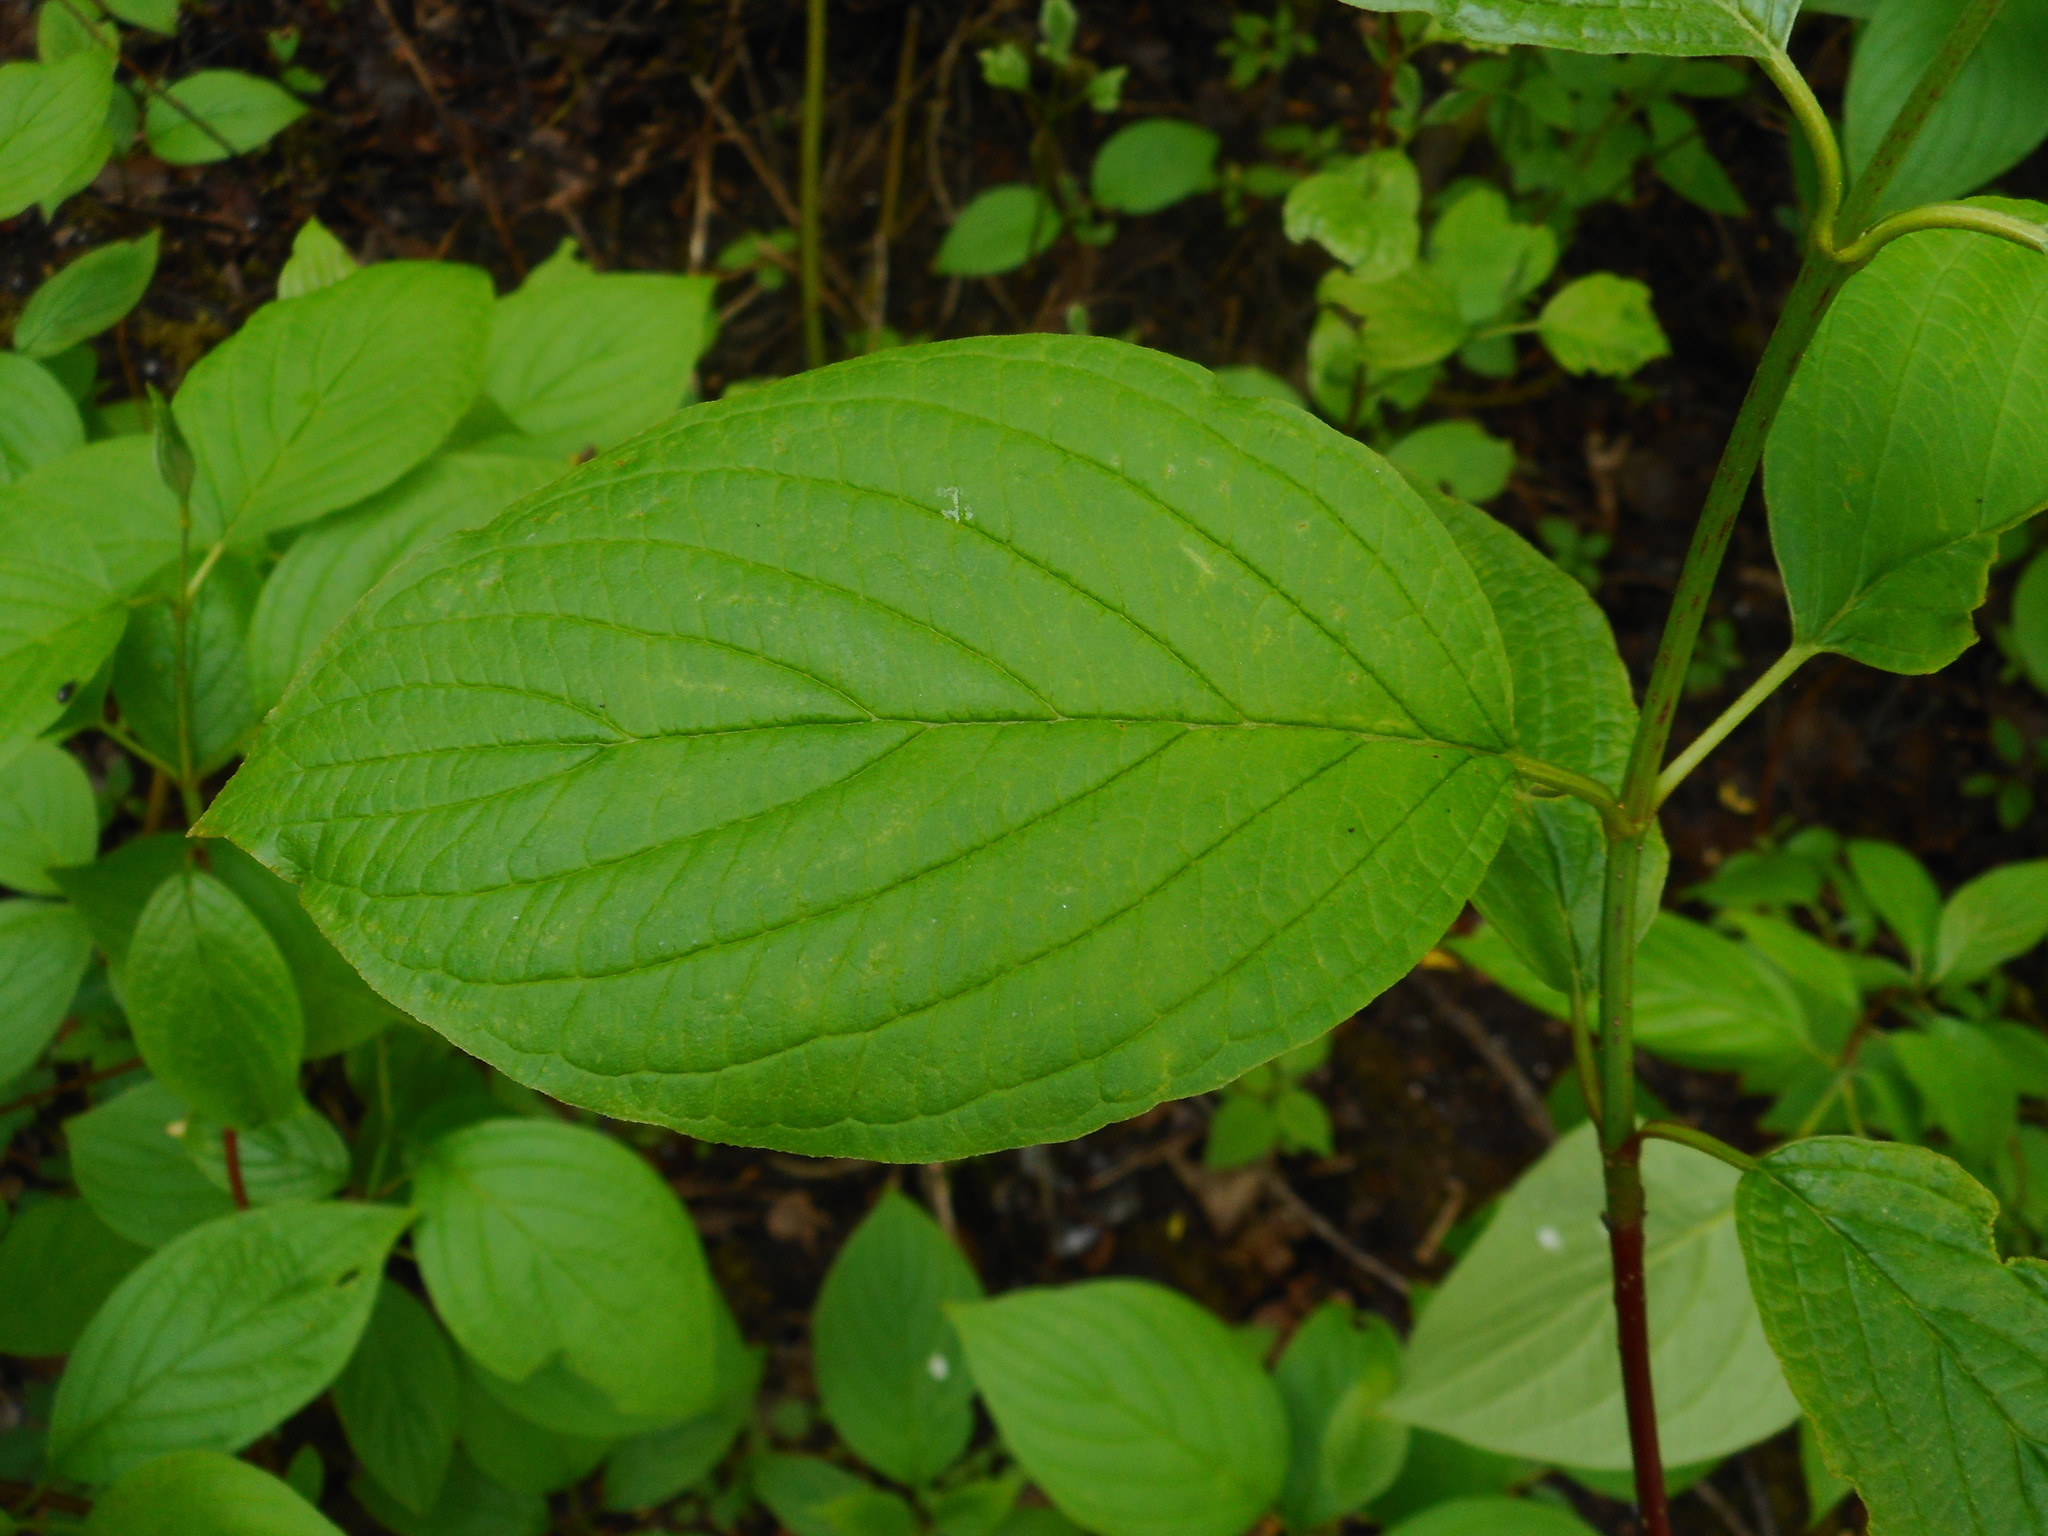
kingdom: Plantae
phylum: Tracheophyta
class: Magnoliopsida
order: Cornales
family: Cornaceae
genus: Cornus
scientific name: Cornus alba
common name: White dogwood
